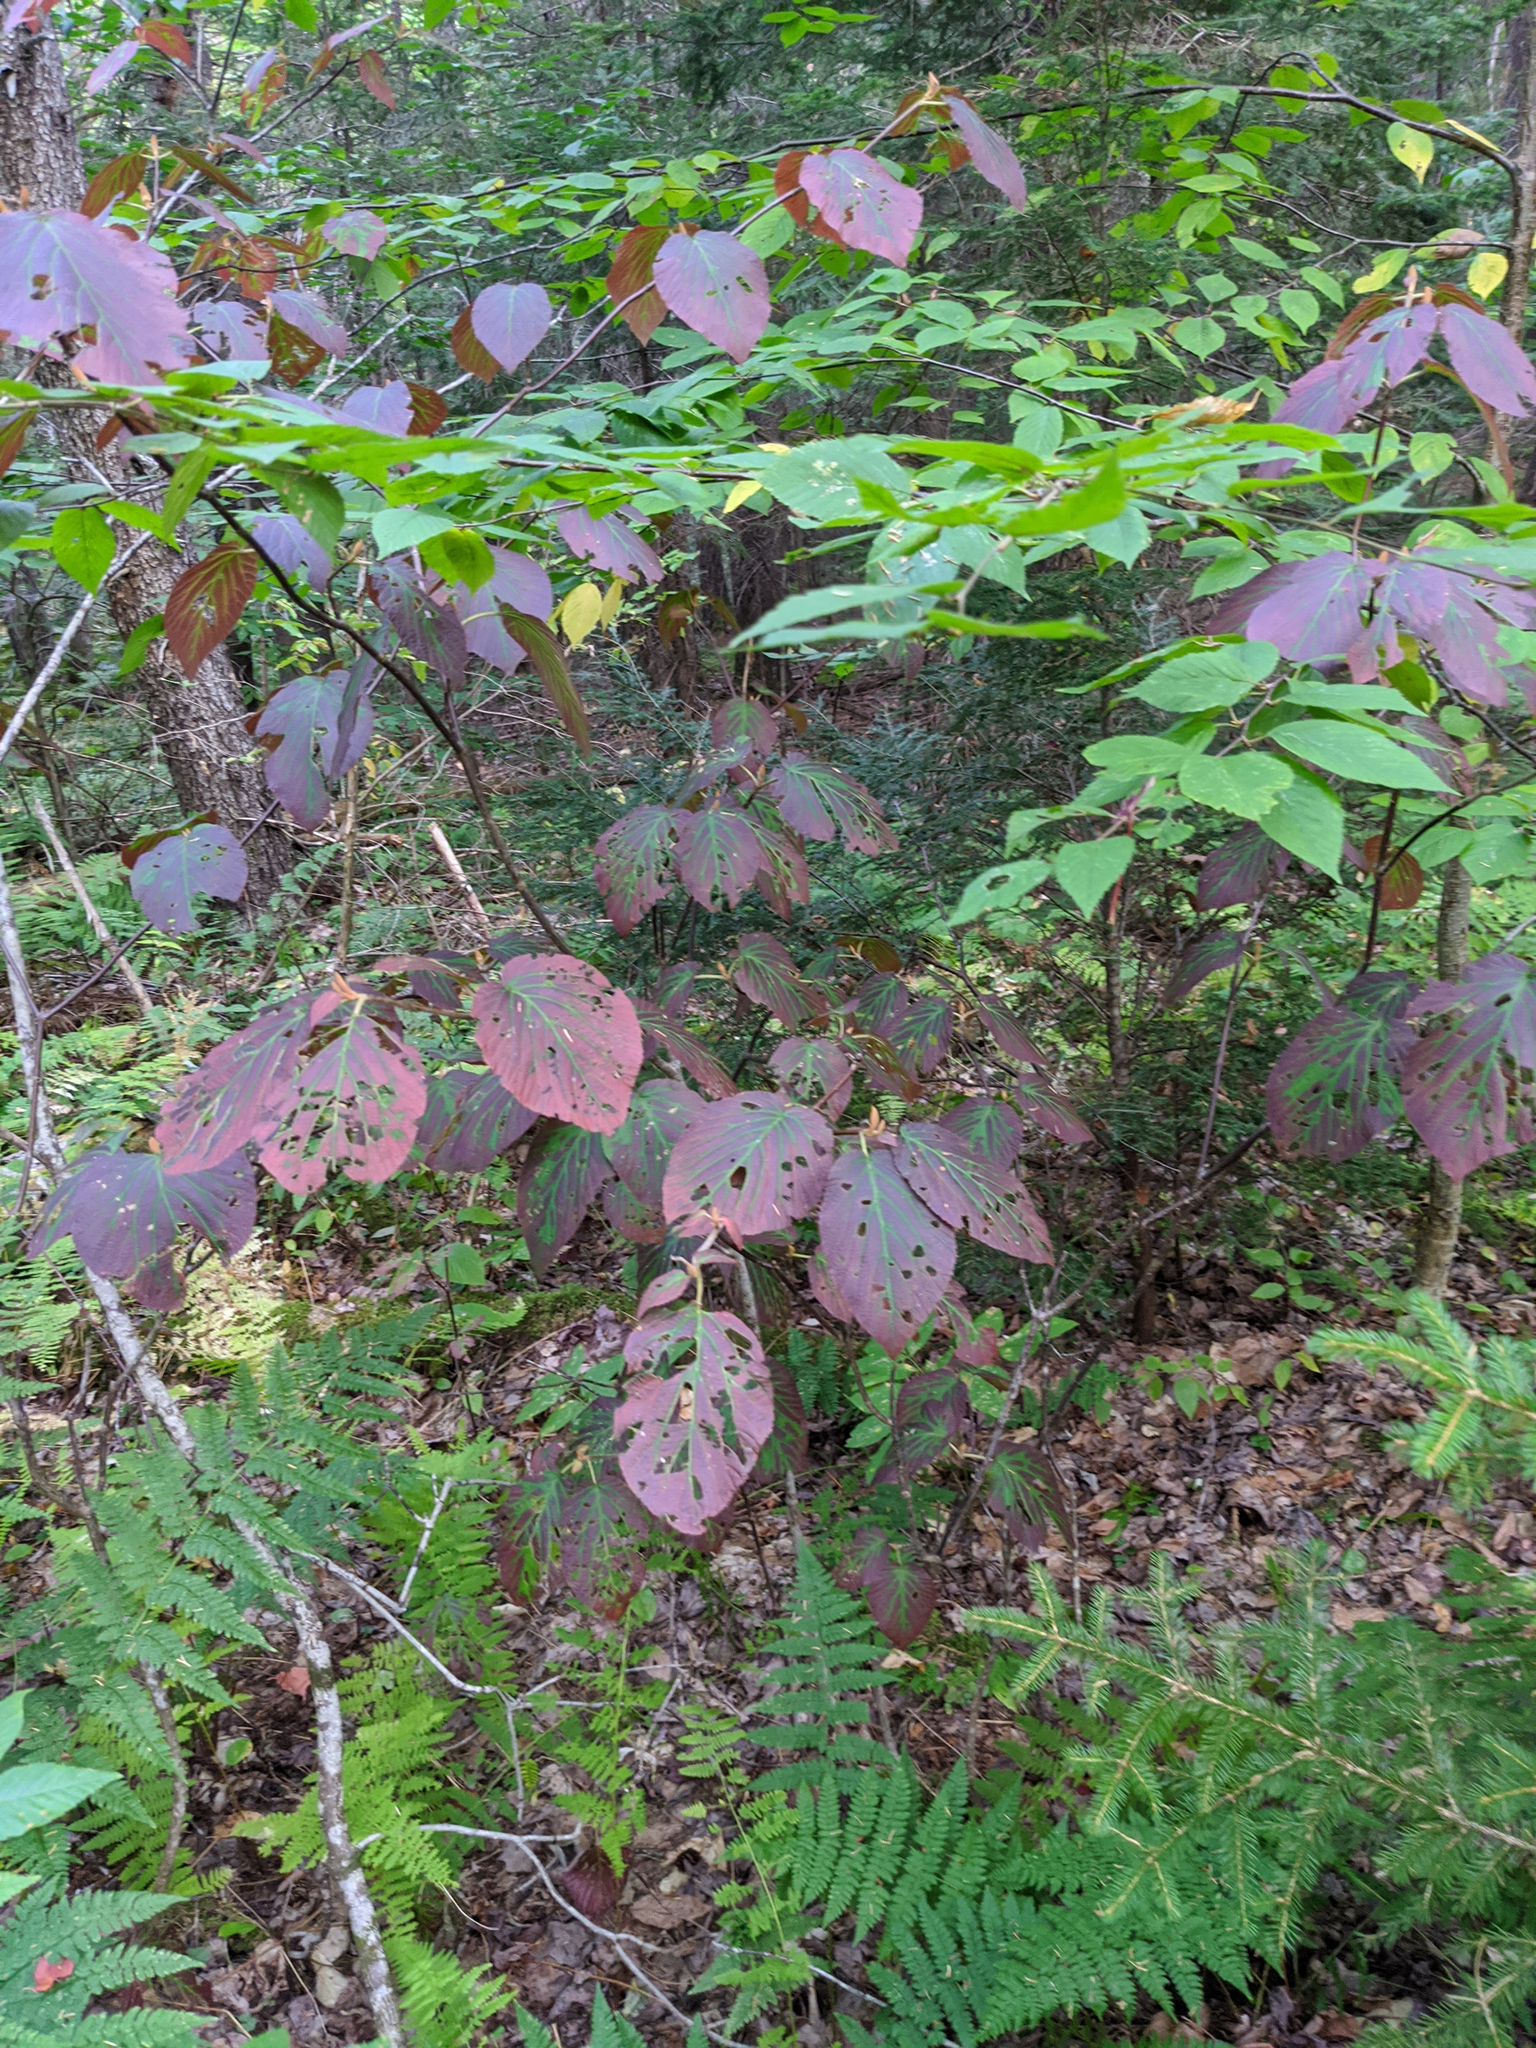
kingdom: Plantae
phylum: Tracheophyta
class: Magnoliopsida
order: Dipsacales
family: Viburnaceae
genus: Viburnum
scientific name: Viburnum lantanoides
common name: Hobblebush
